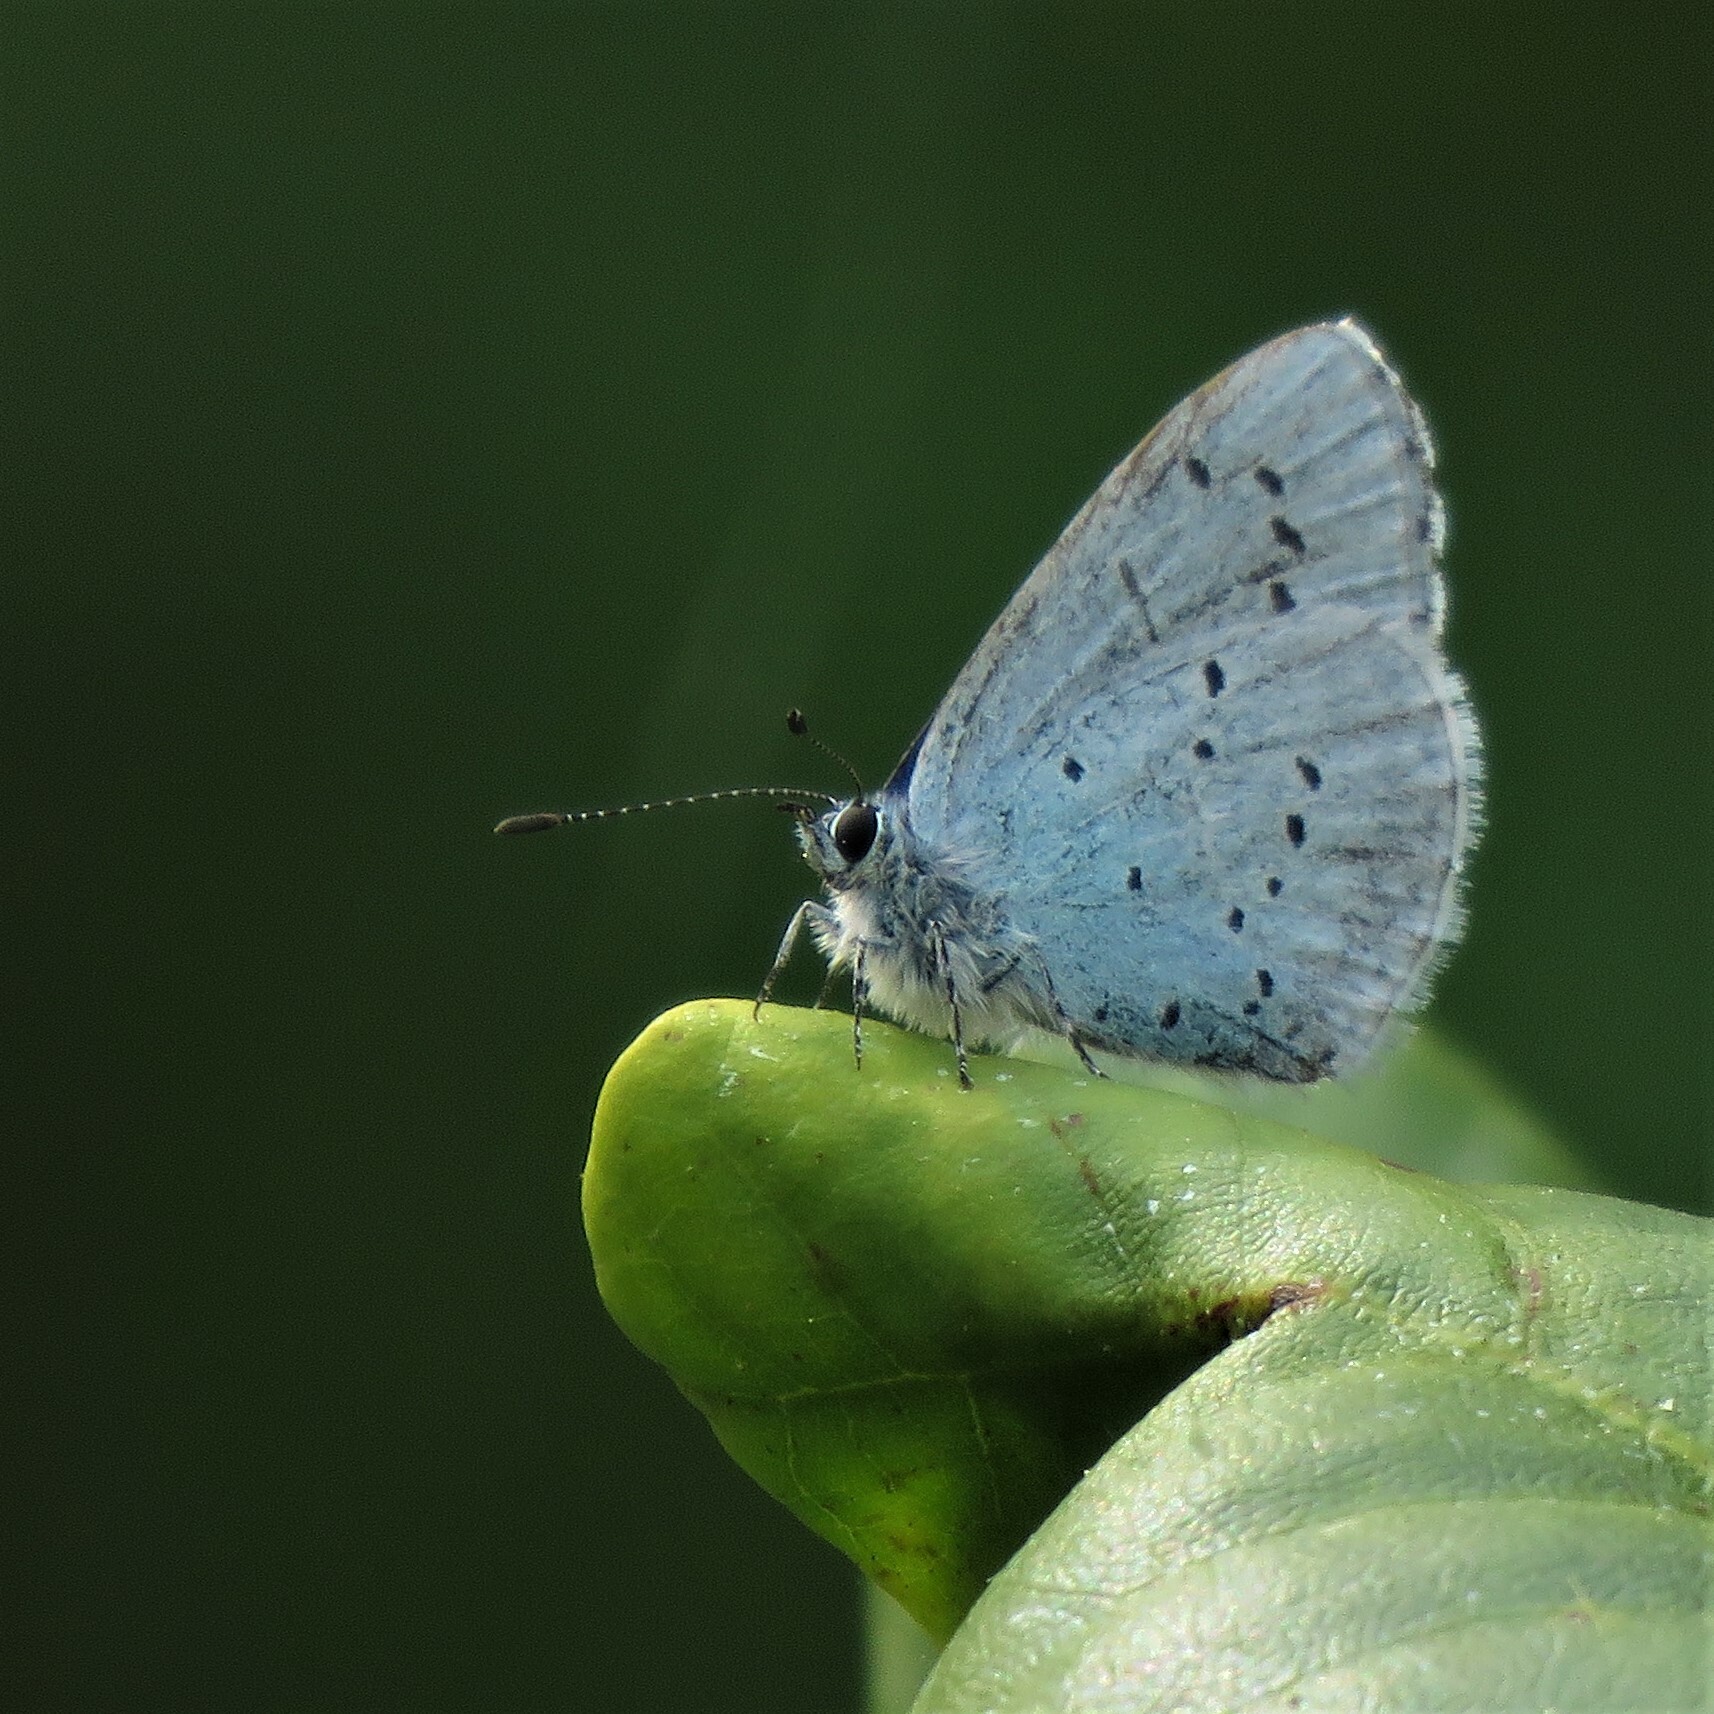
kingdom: Animalia
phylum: Arthropoda
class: Insecta
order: Lepidoptera
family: Lycaenidae
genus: Celastrina
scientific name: Celastrina argiolus
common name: Holly blue
